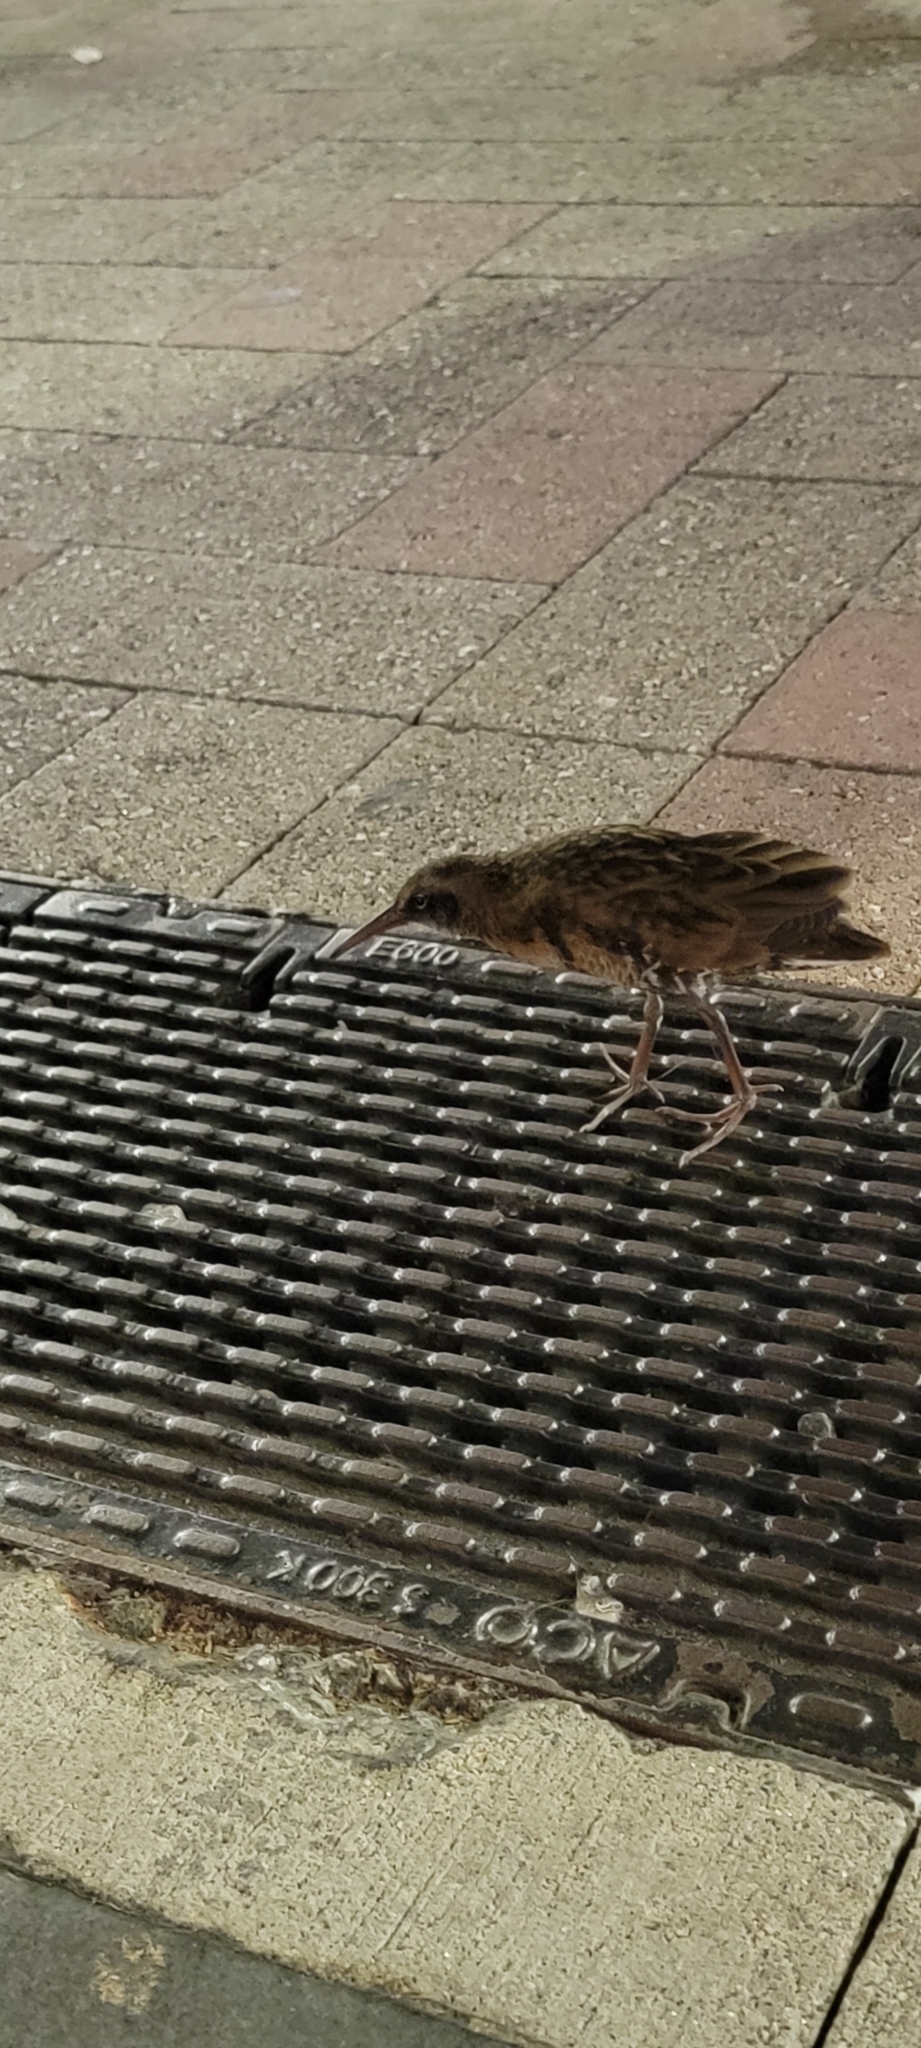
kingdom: Animalia
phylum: Chordata
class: Aves
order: Gruiformes
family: Rallidae
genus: Rallus
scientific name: Rallus limicola
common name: Virginia rail
